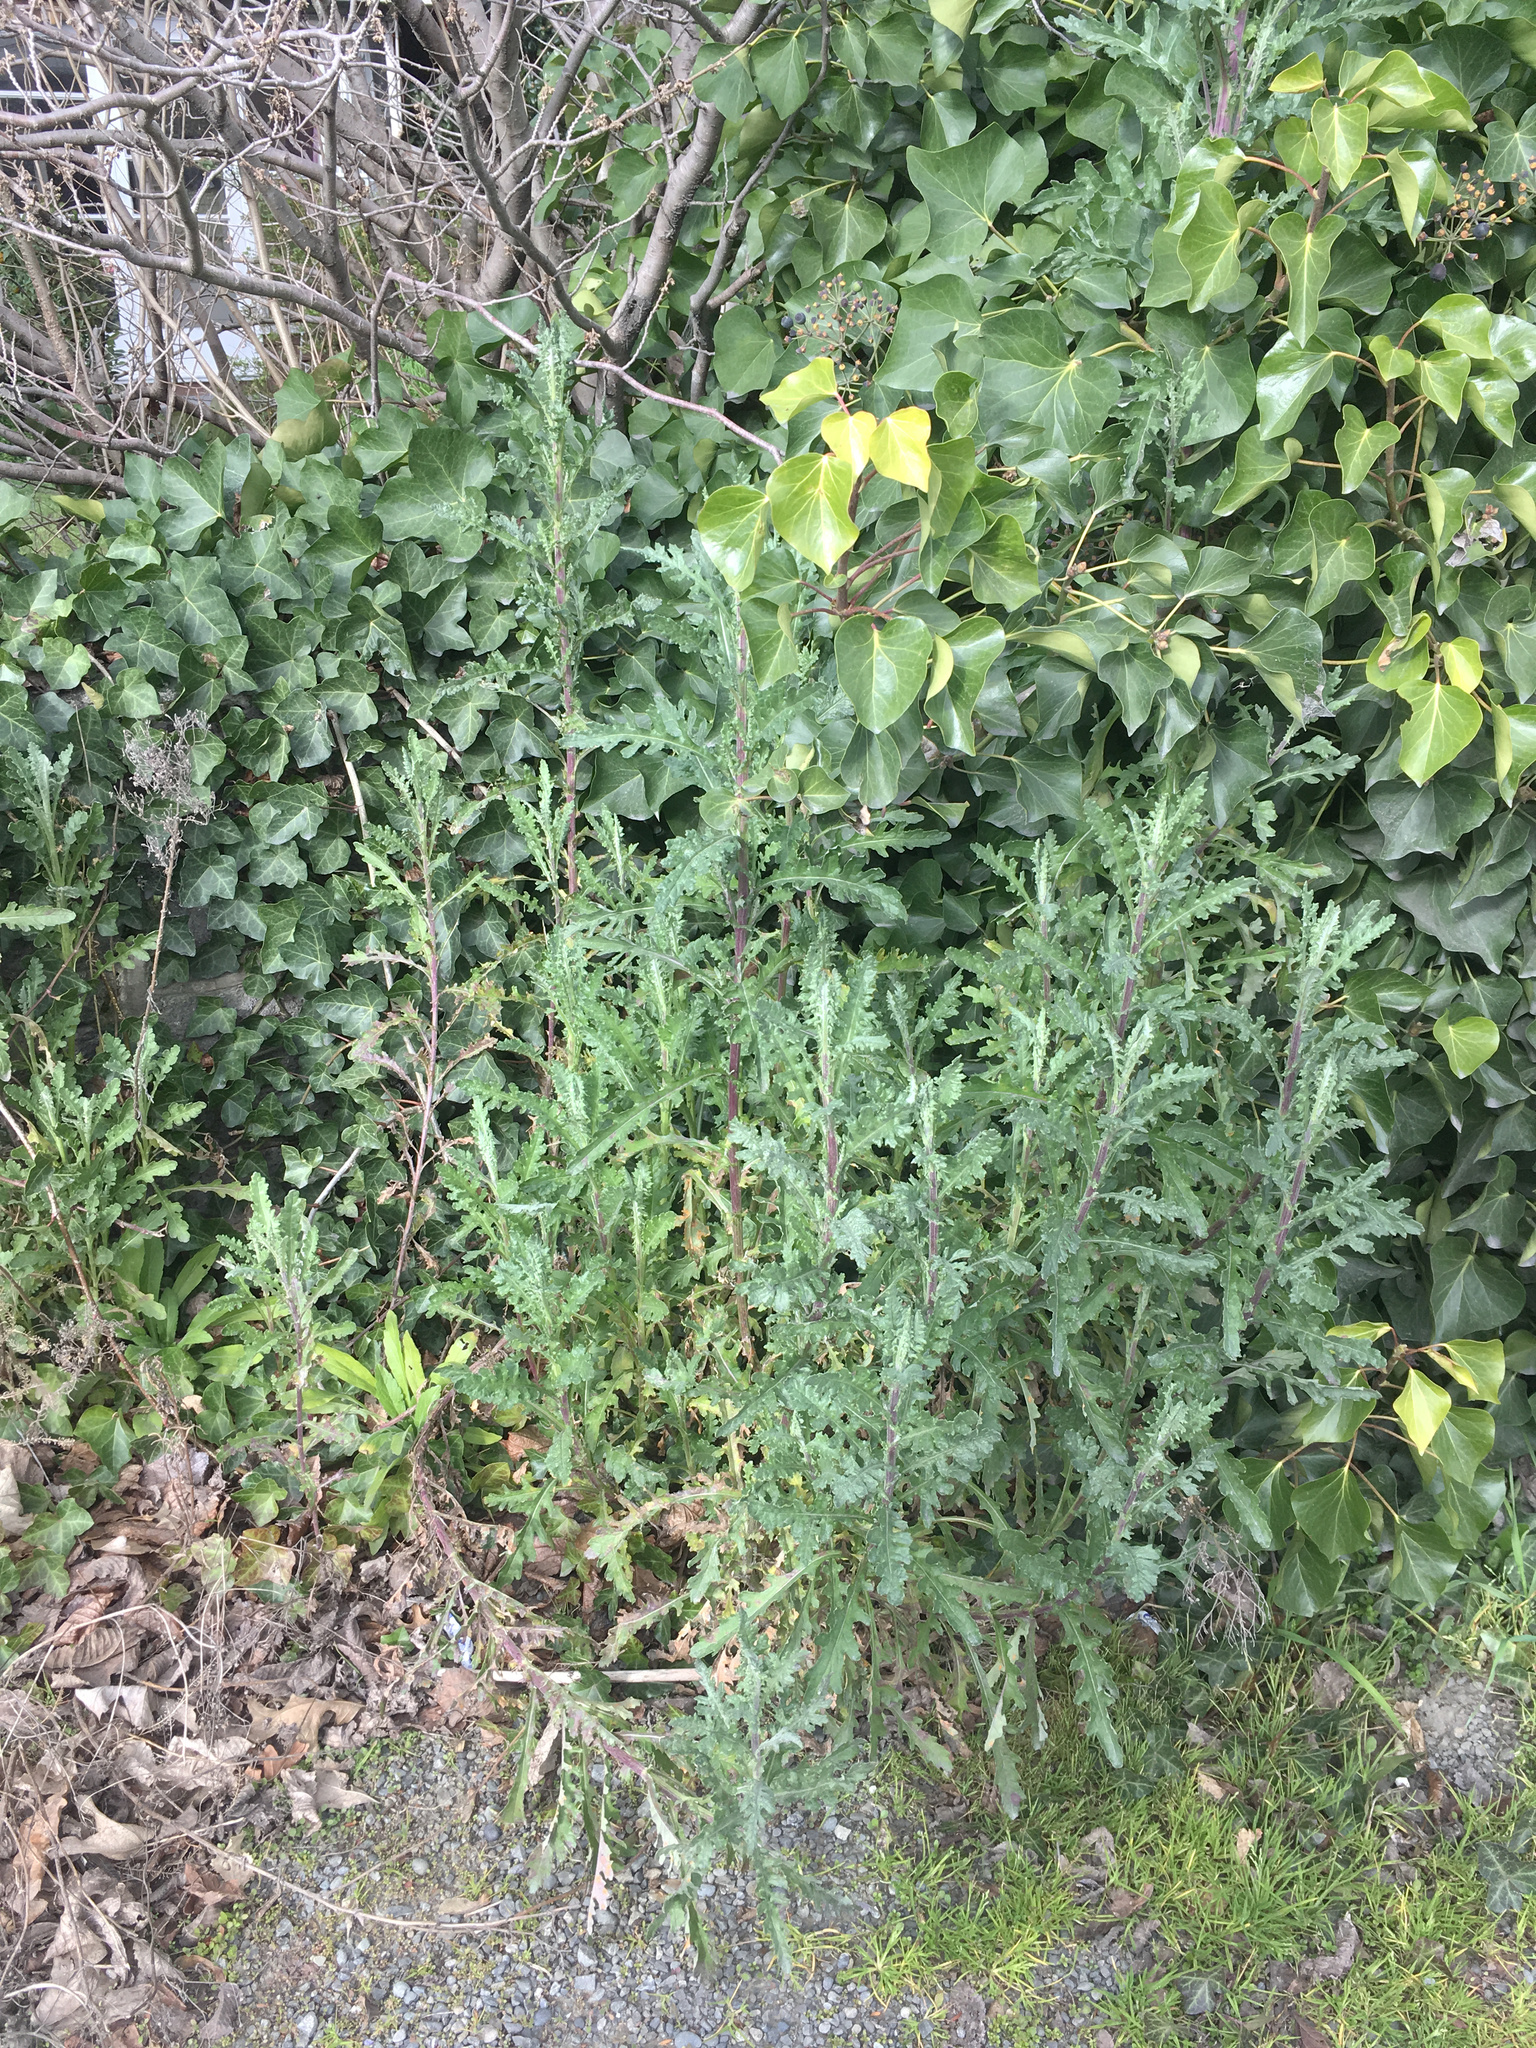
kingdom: Plantae
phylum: Tracheophyta
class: Magnoliopsida
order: Asterales
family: Asteraceae
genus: Senecio
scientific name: Senecio glomeratus
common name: Cutleaf burnweed
